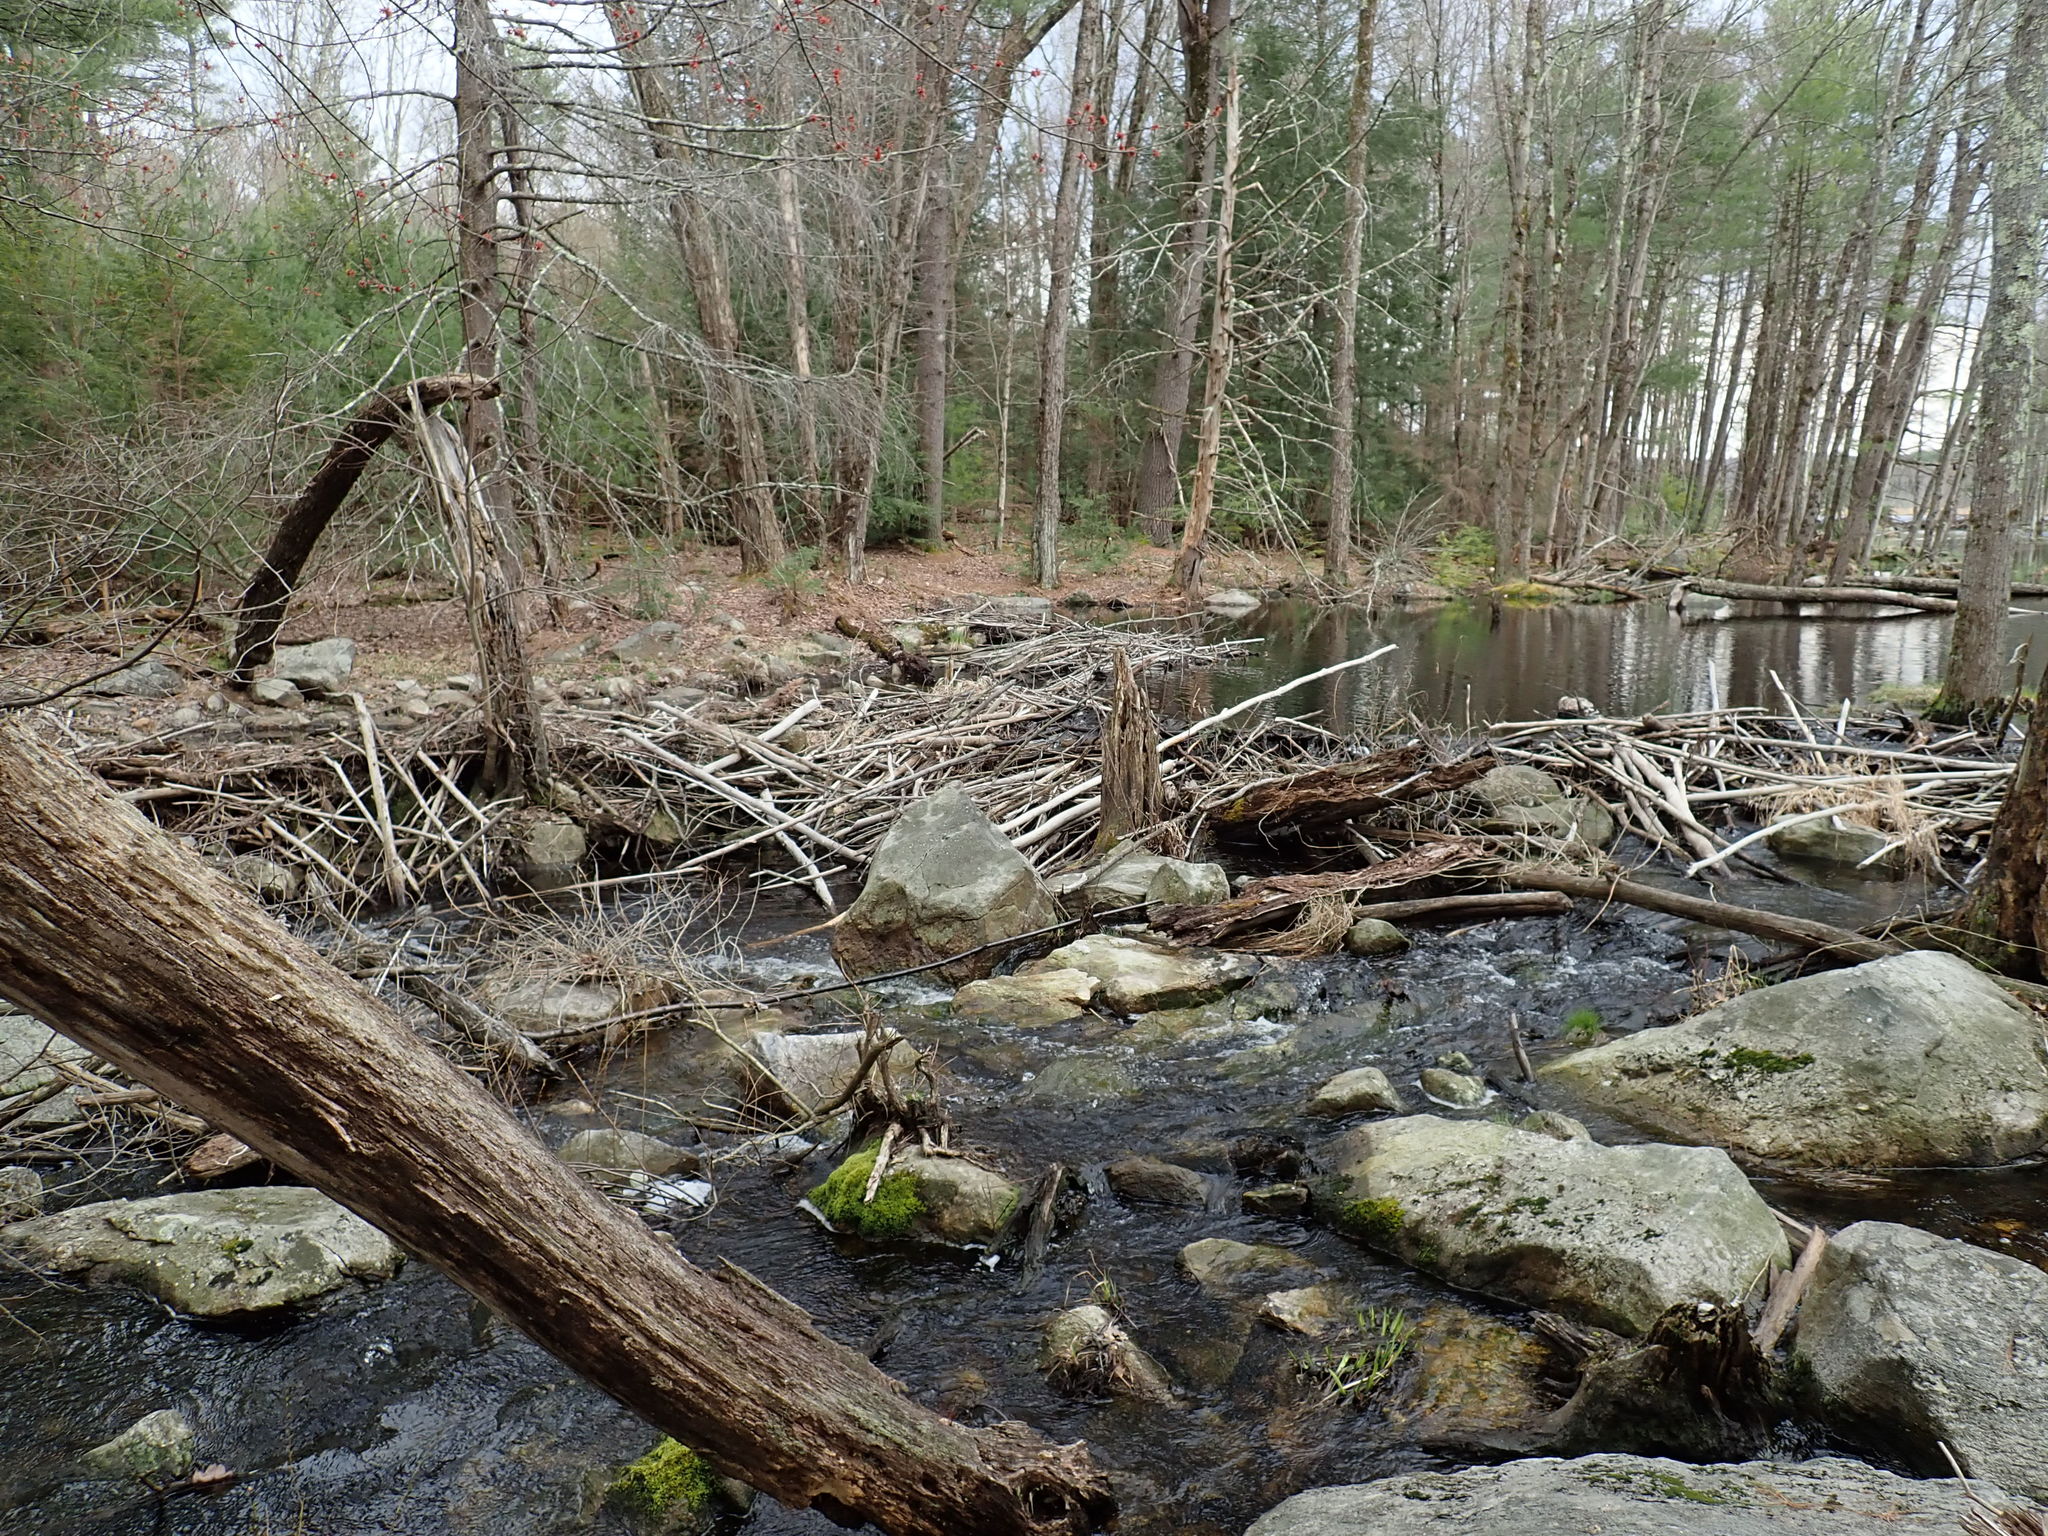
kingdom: Animalia
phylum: Chordata
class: Mammalia
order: Rodentia
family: Castoridae
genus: Castor
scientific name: Castor canadensis
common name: American beaver
